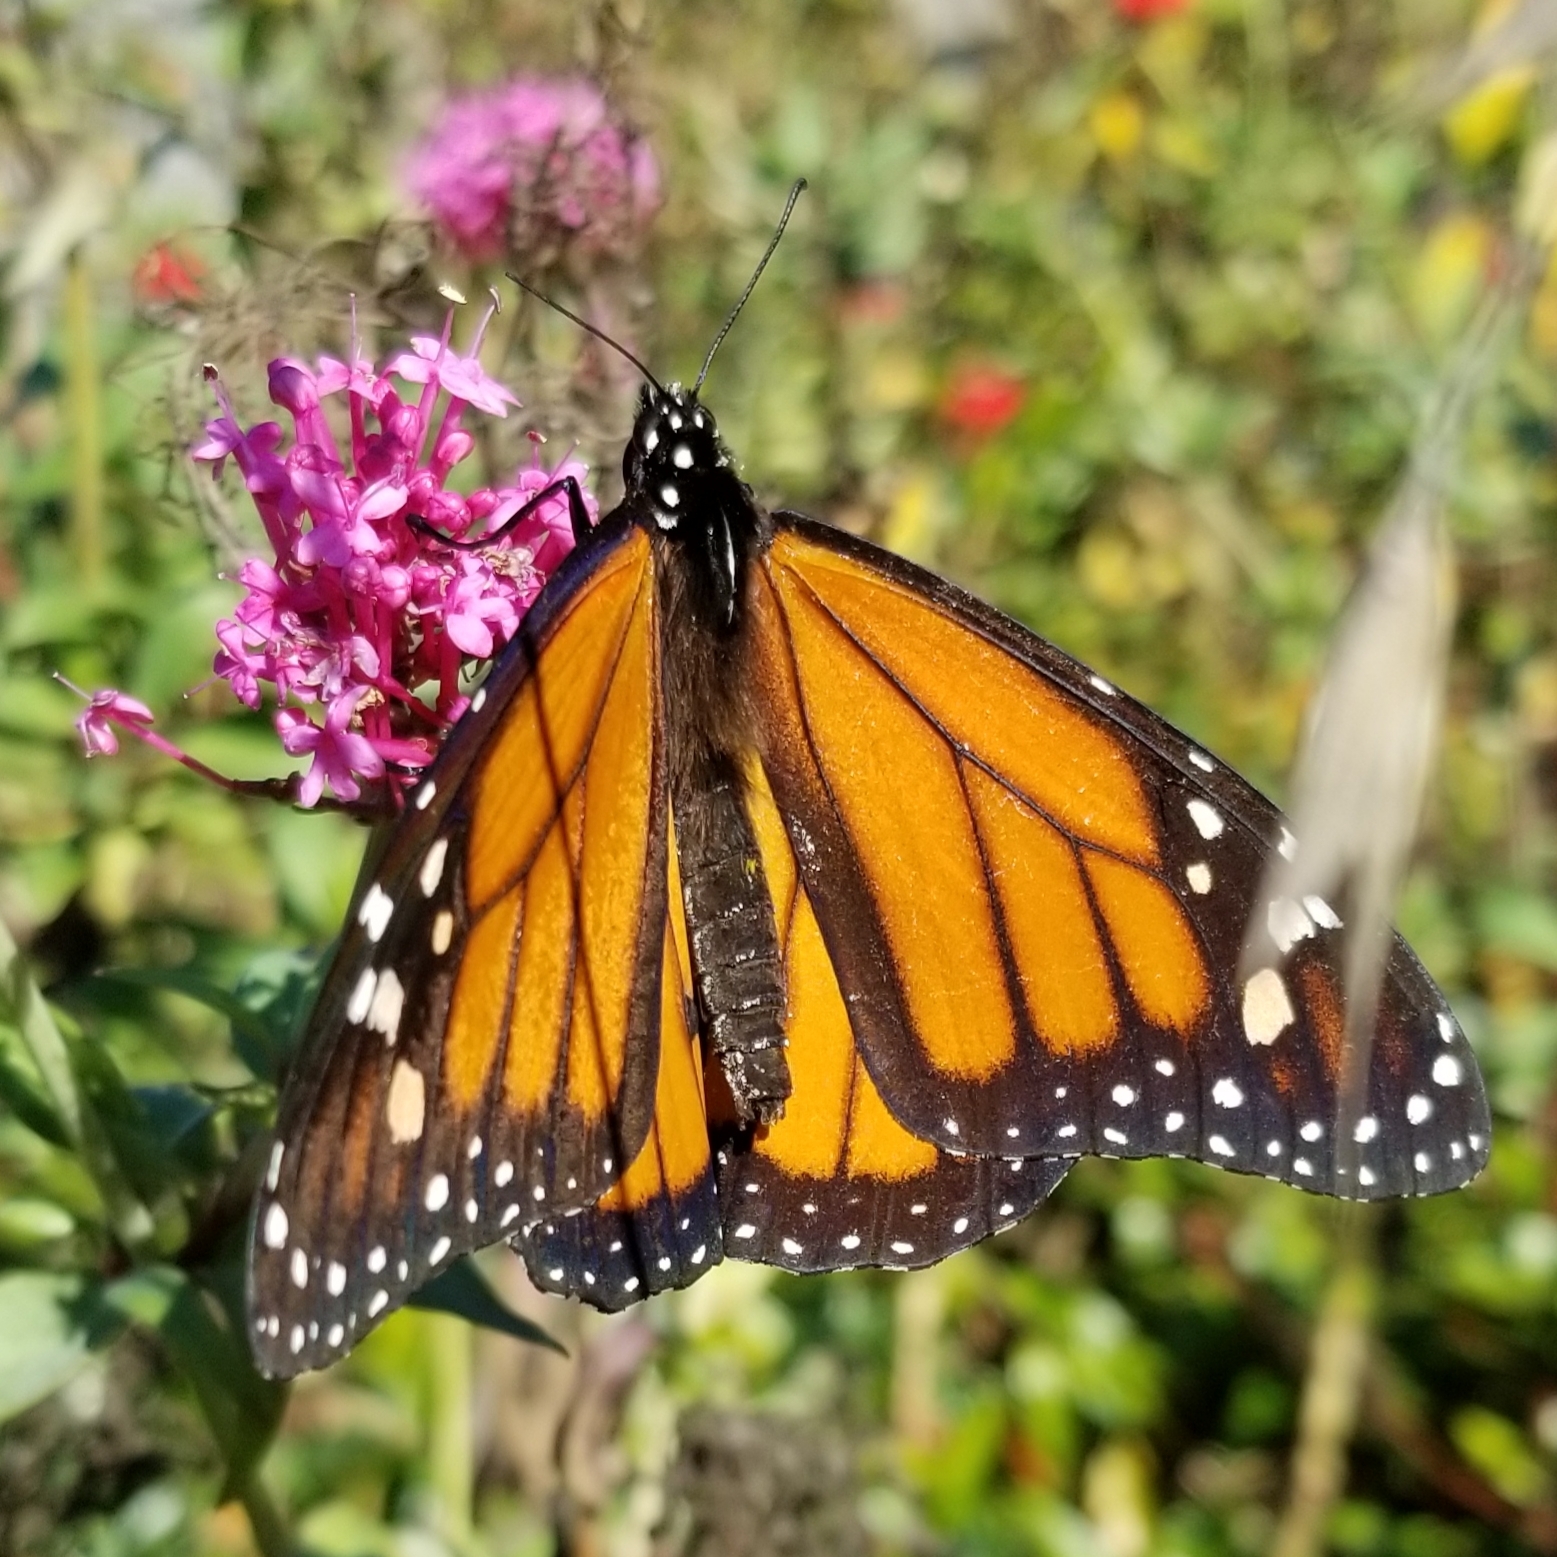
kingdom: Animalia
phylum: Arthropoda
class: Insecta
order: Lepidoptera
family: Nymphalidae
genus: Danaus
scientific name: Danaus plexippus
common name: Monarch
